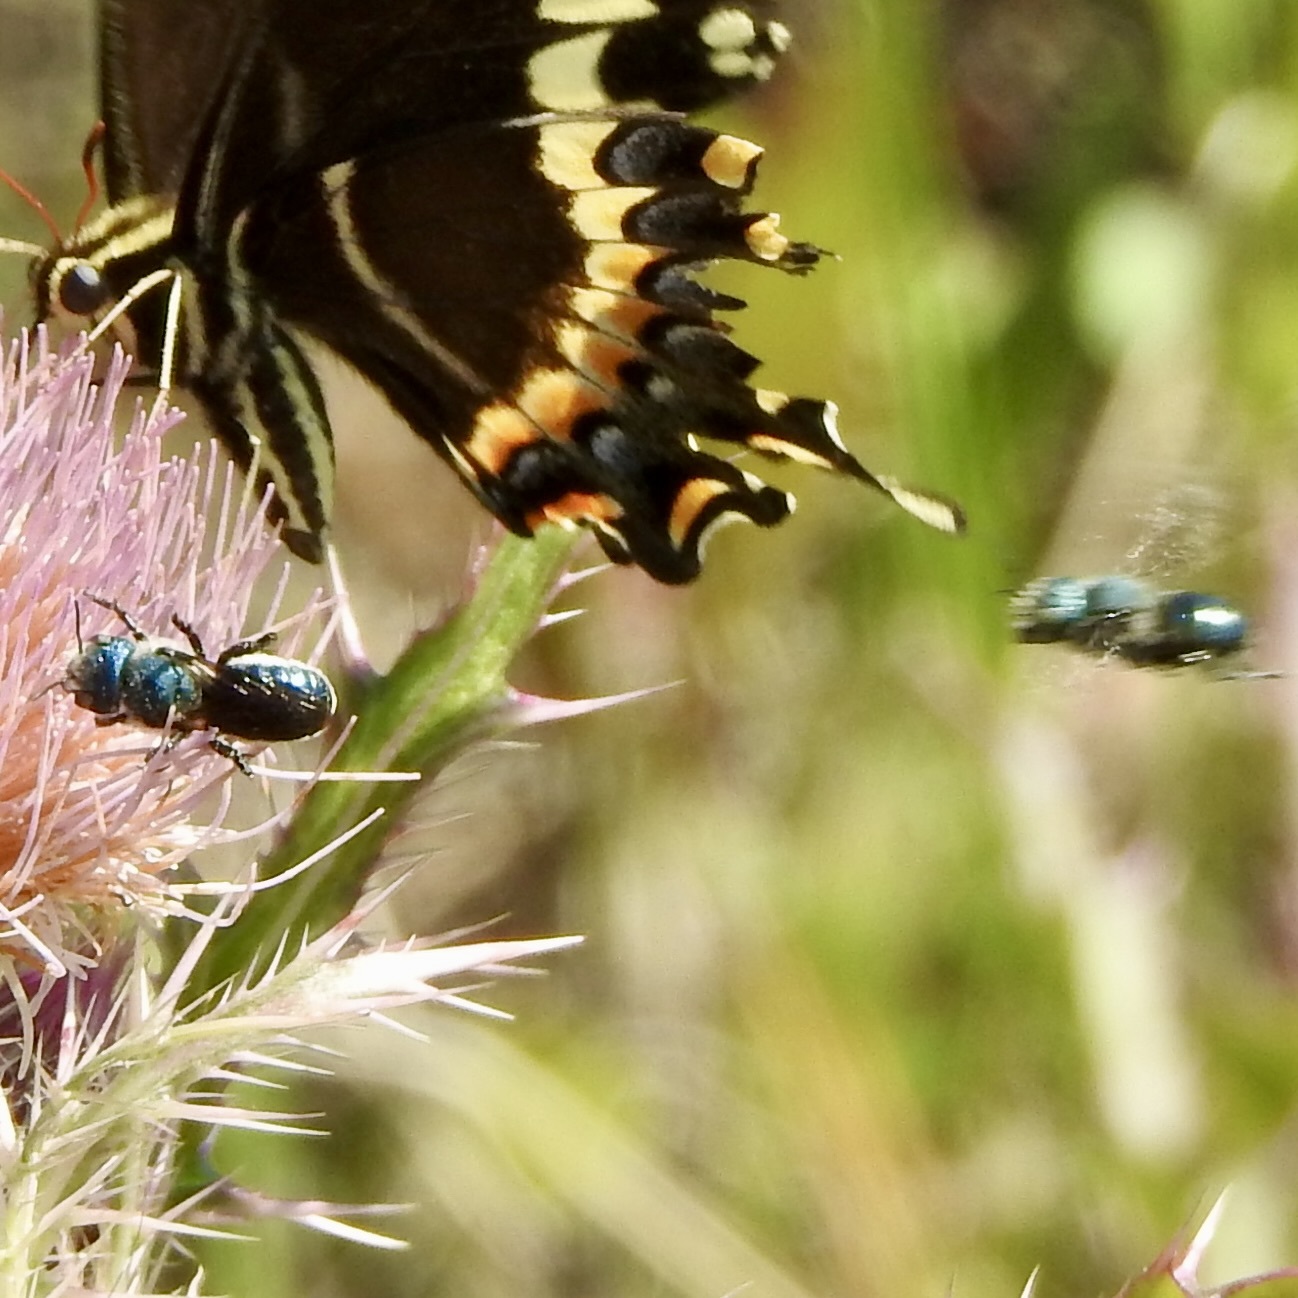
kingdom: Animalia
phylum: Arthropoda
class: Insecta
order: Hymenoptera
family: Megachilidae
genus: Osmia
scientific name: Osmia chalybea
